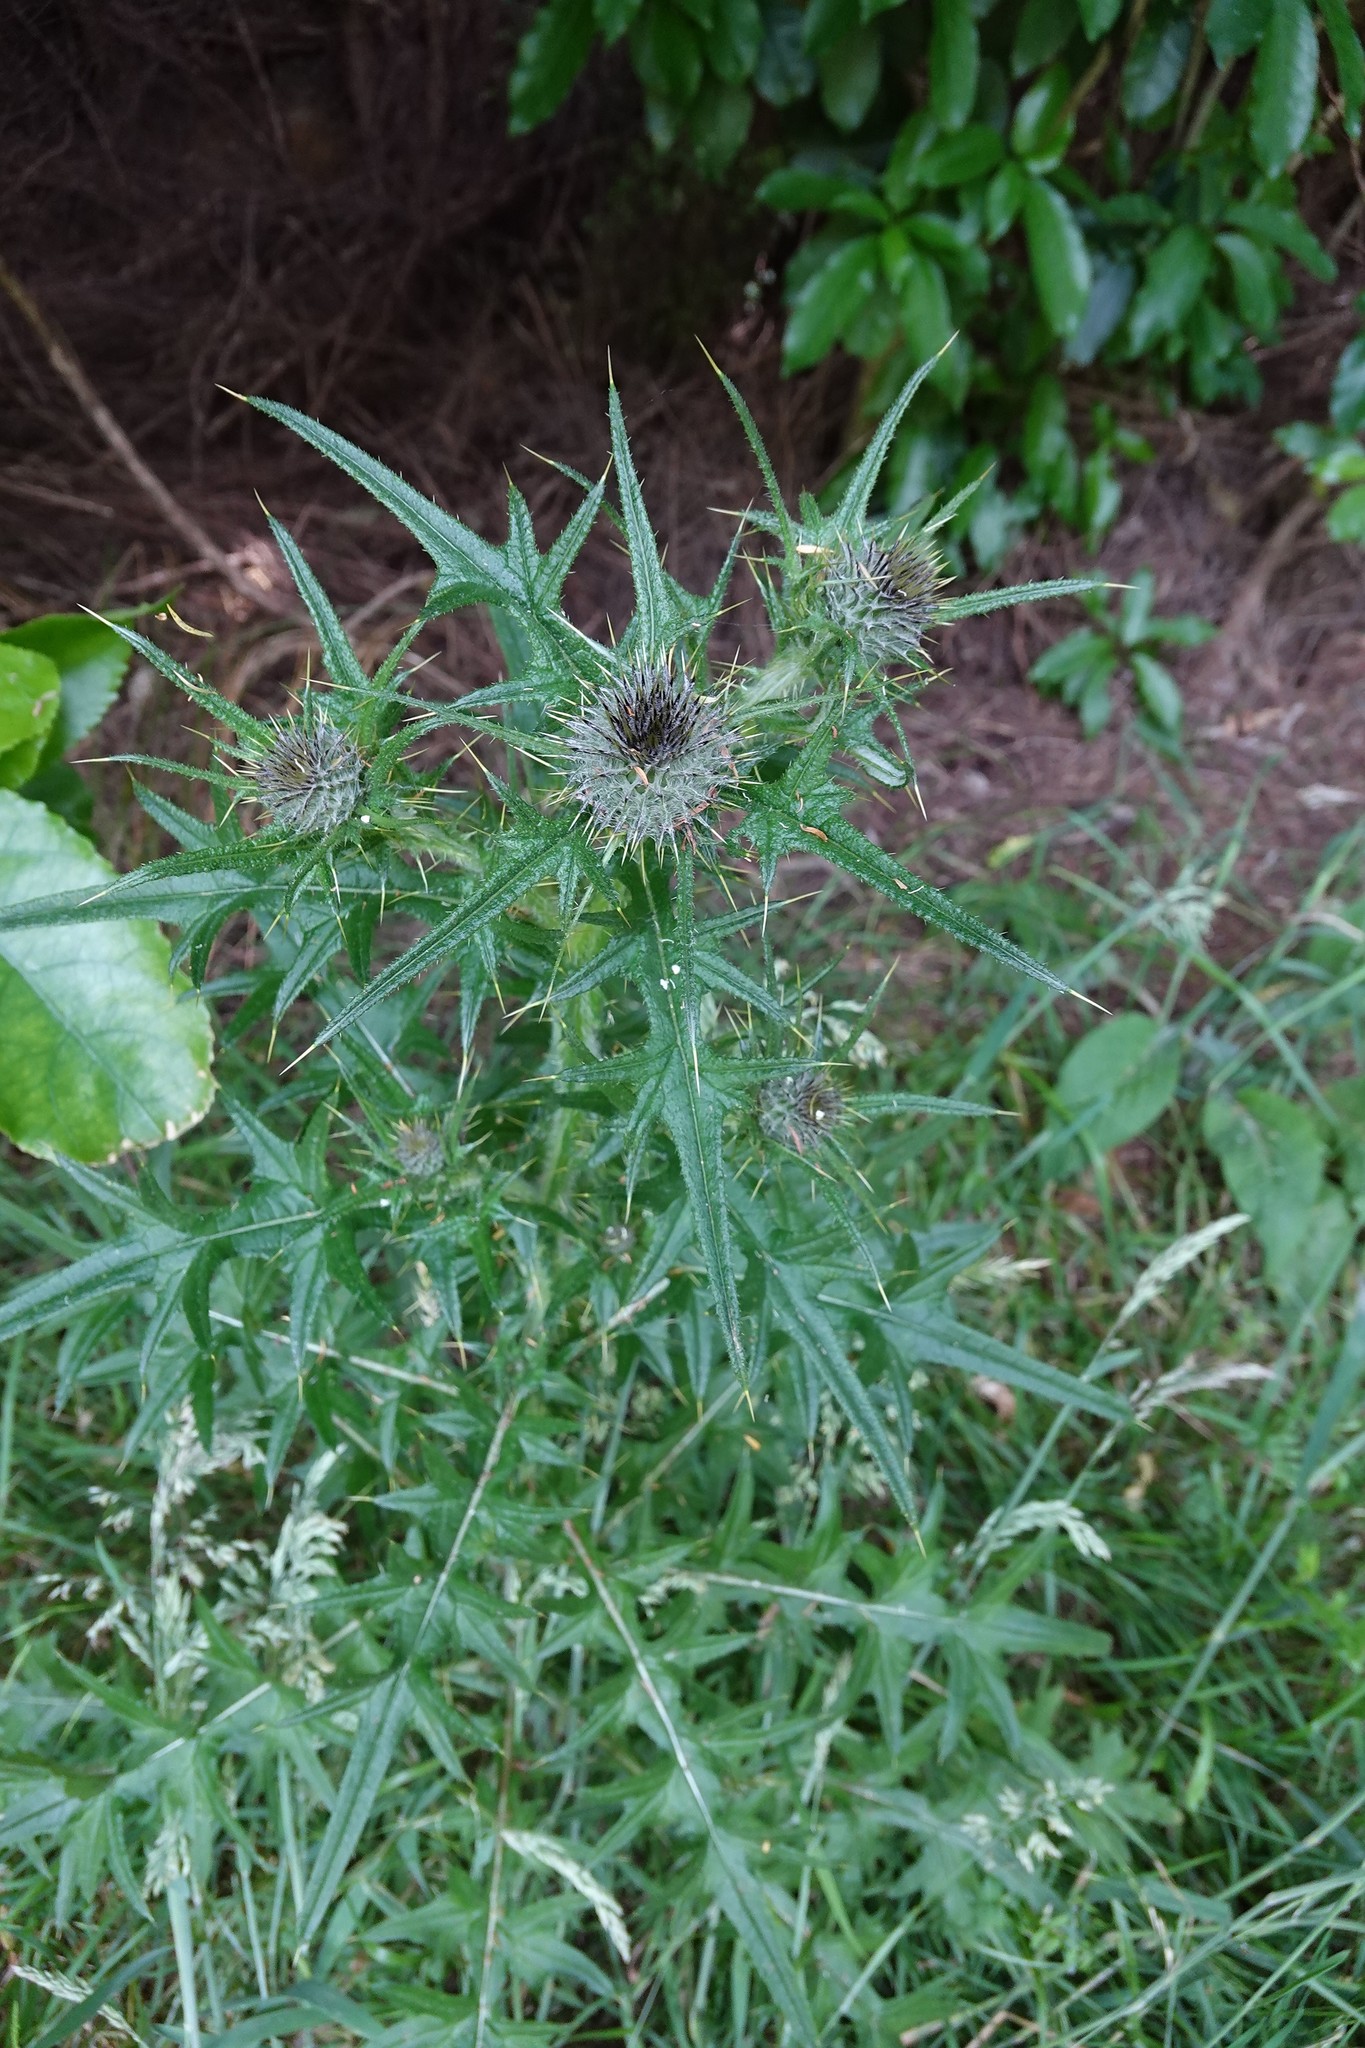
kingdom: Plantae
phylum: Tracheophyta
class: Magnoliopsida
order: Asterales
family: Asteraceae
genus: Cirsium
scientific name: Cirsium vulgare
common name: Bull thistle
